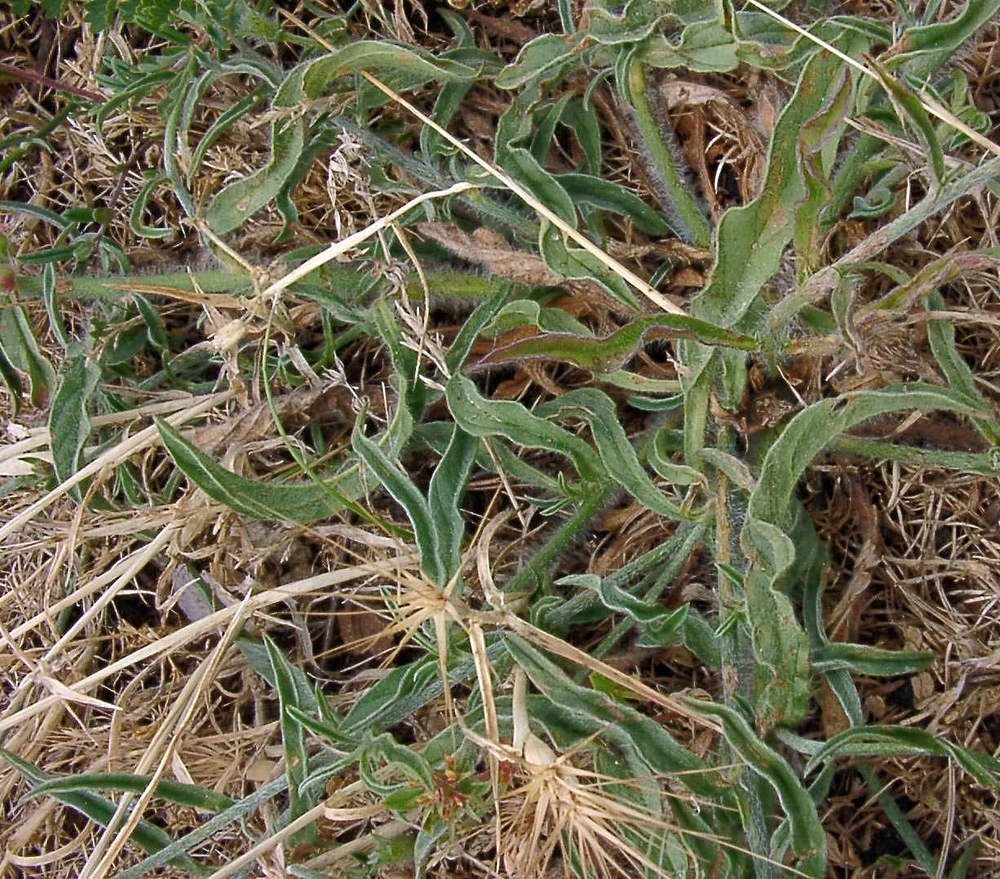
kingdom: Plantae
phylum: Tracheophyta
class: Magnoliopsida
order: Solanales
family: Convolvulaceae
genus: Convolvulus
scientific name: Convolvulus cantabrica
